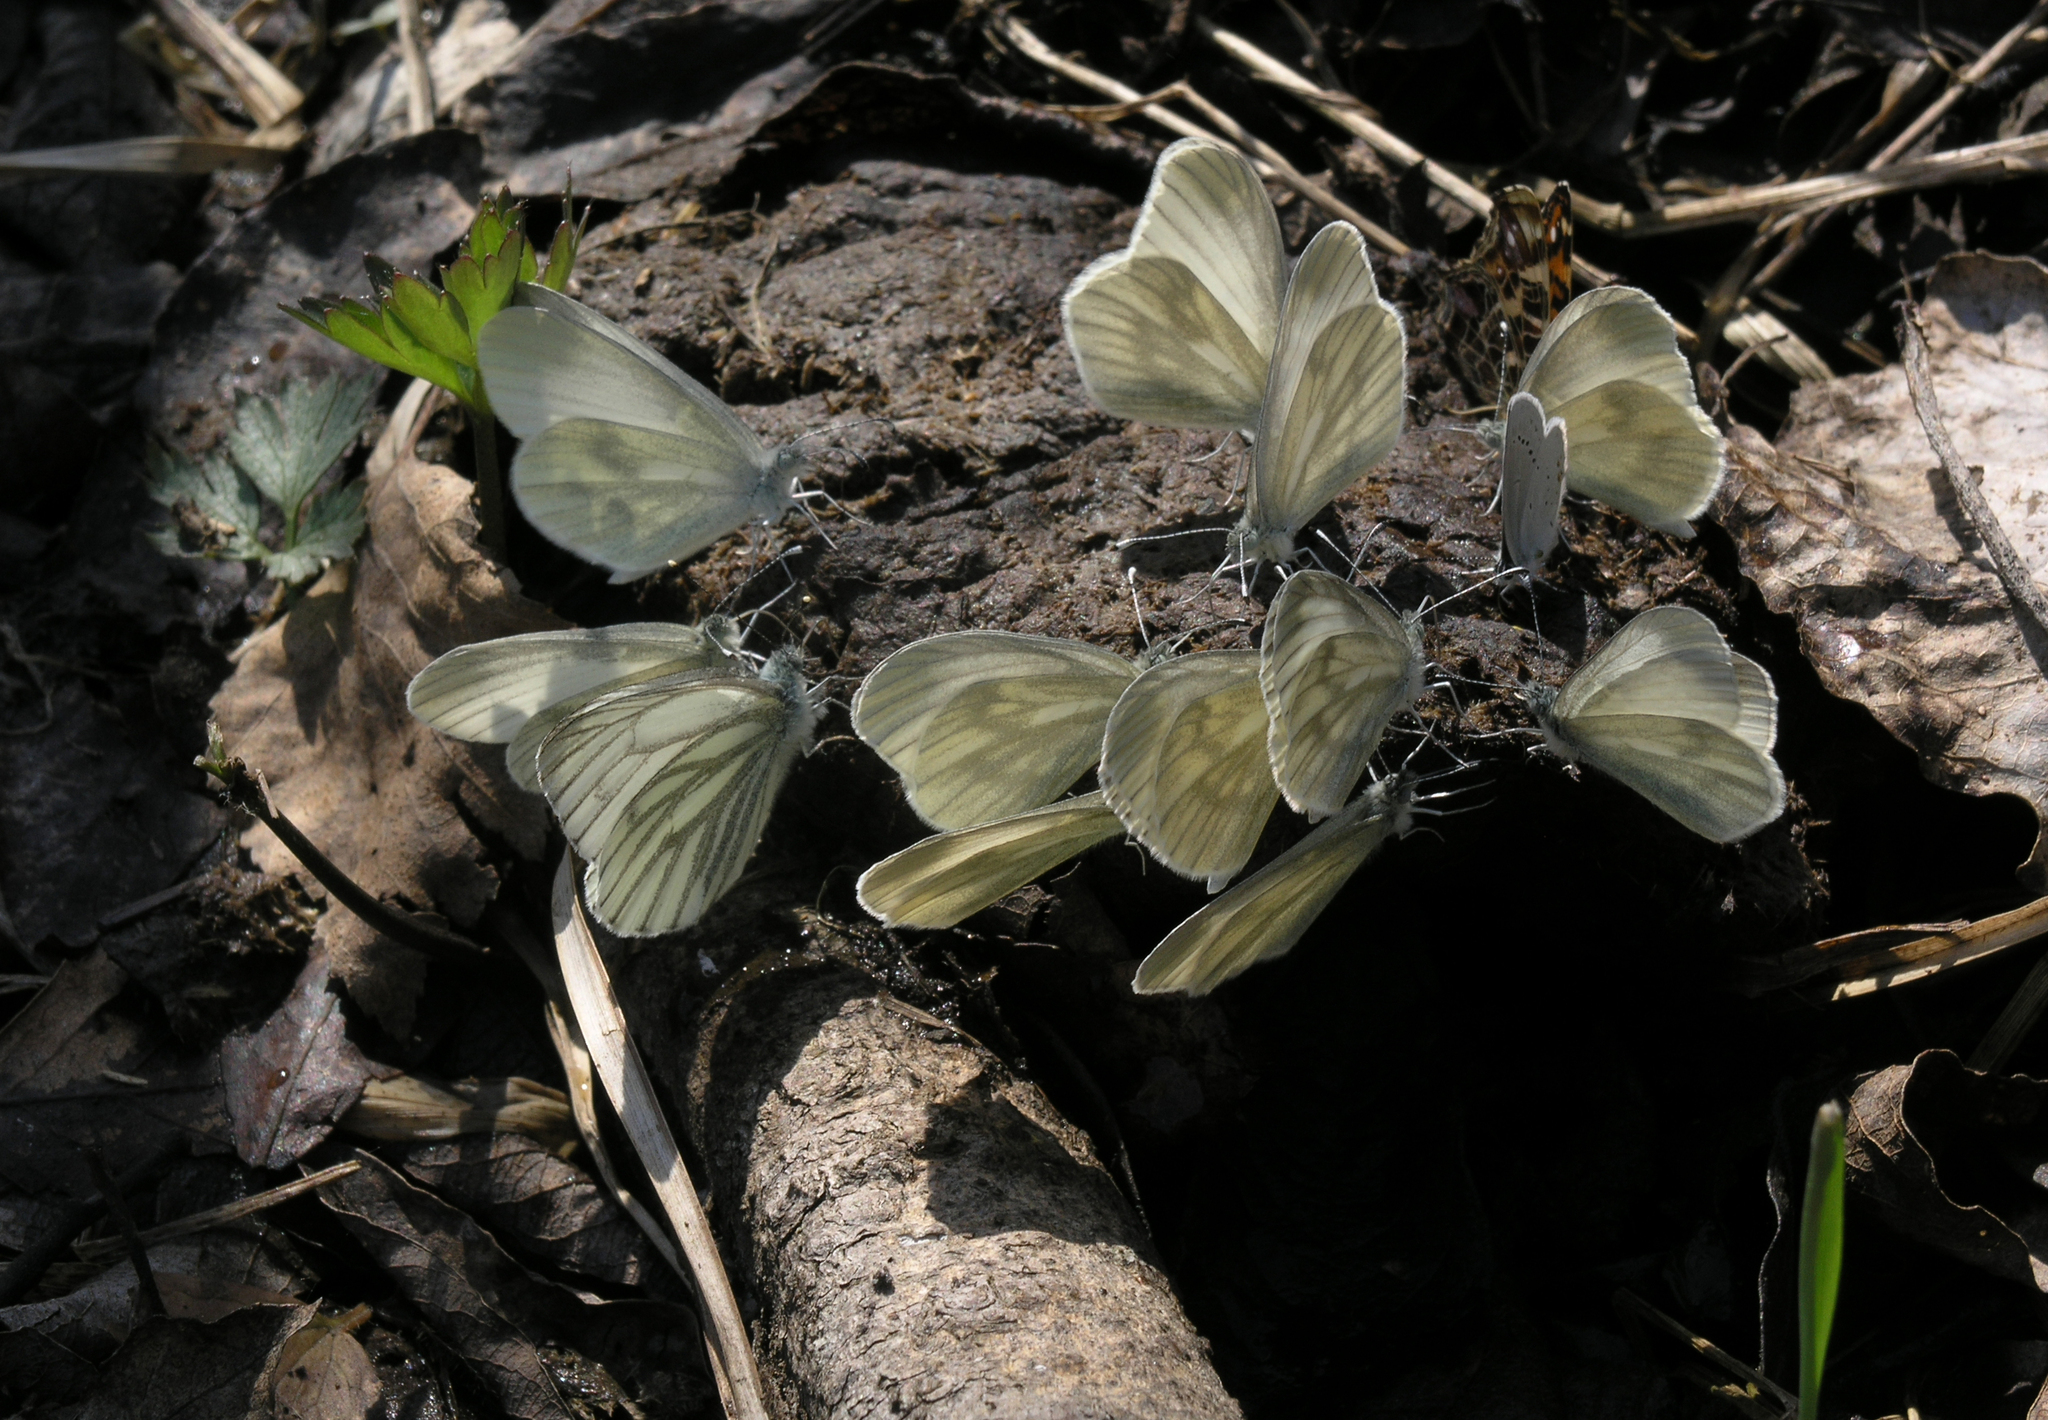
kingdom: Animalia
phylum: Arthropoda
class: Insecta
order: Lepidoptera
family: Pieridae
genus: Leptidea
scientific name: Leptidea sinapis
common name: Wood white
